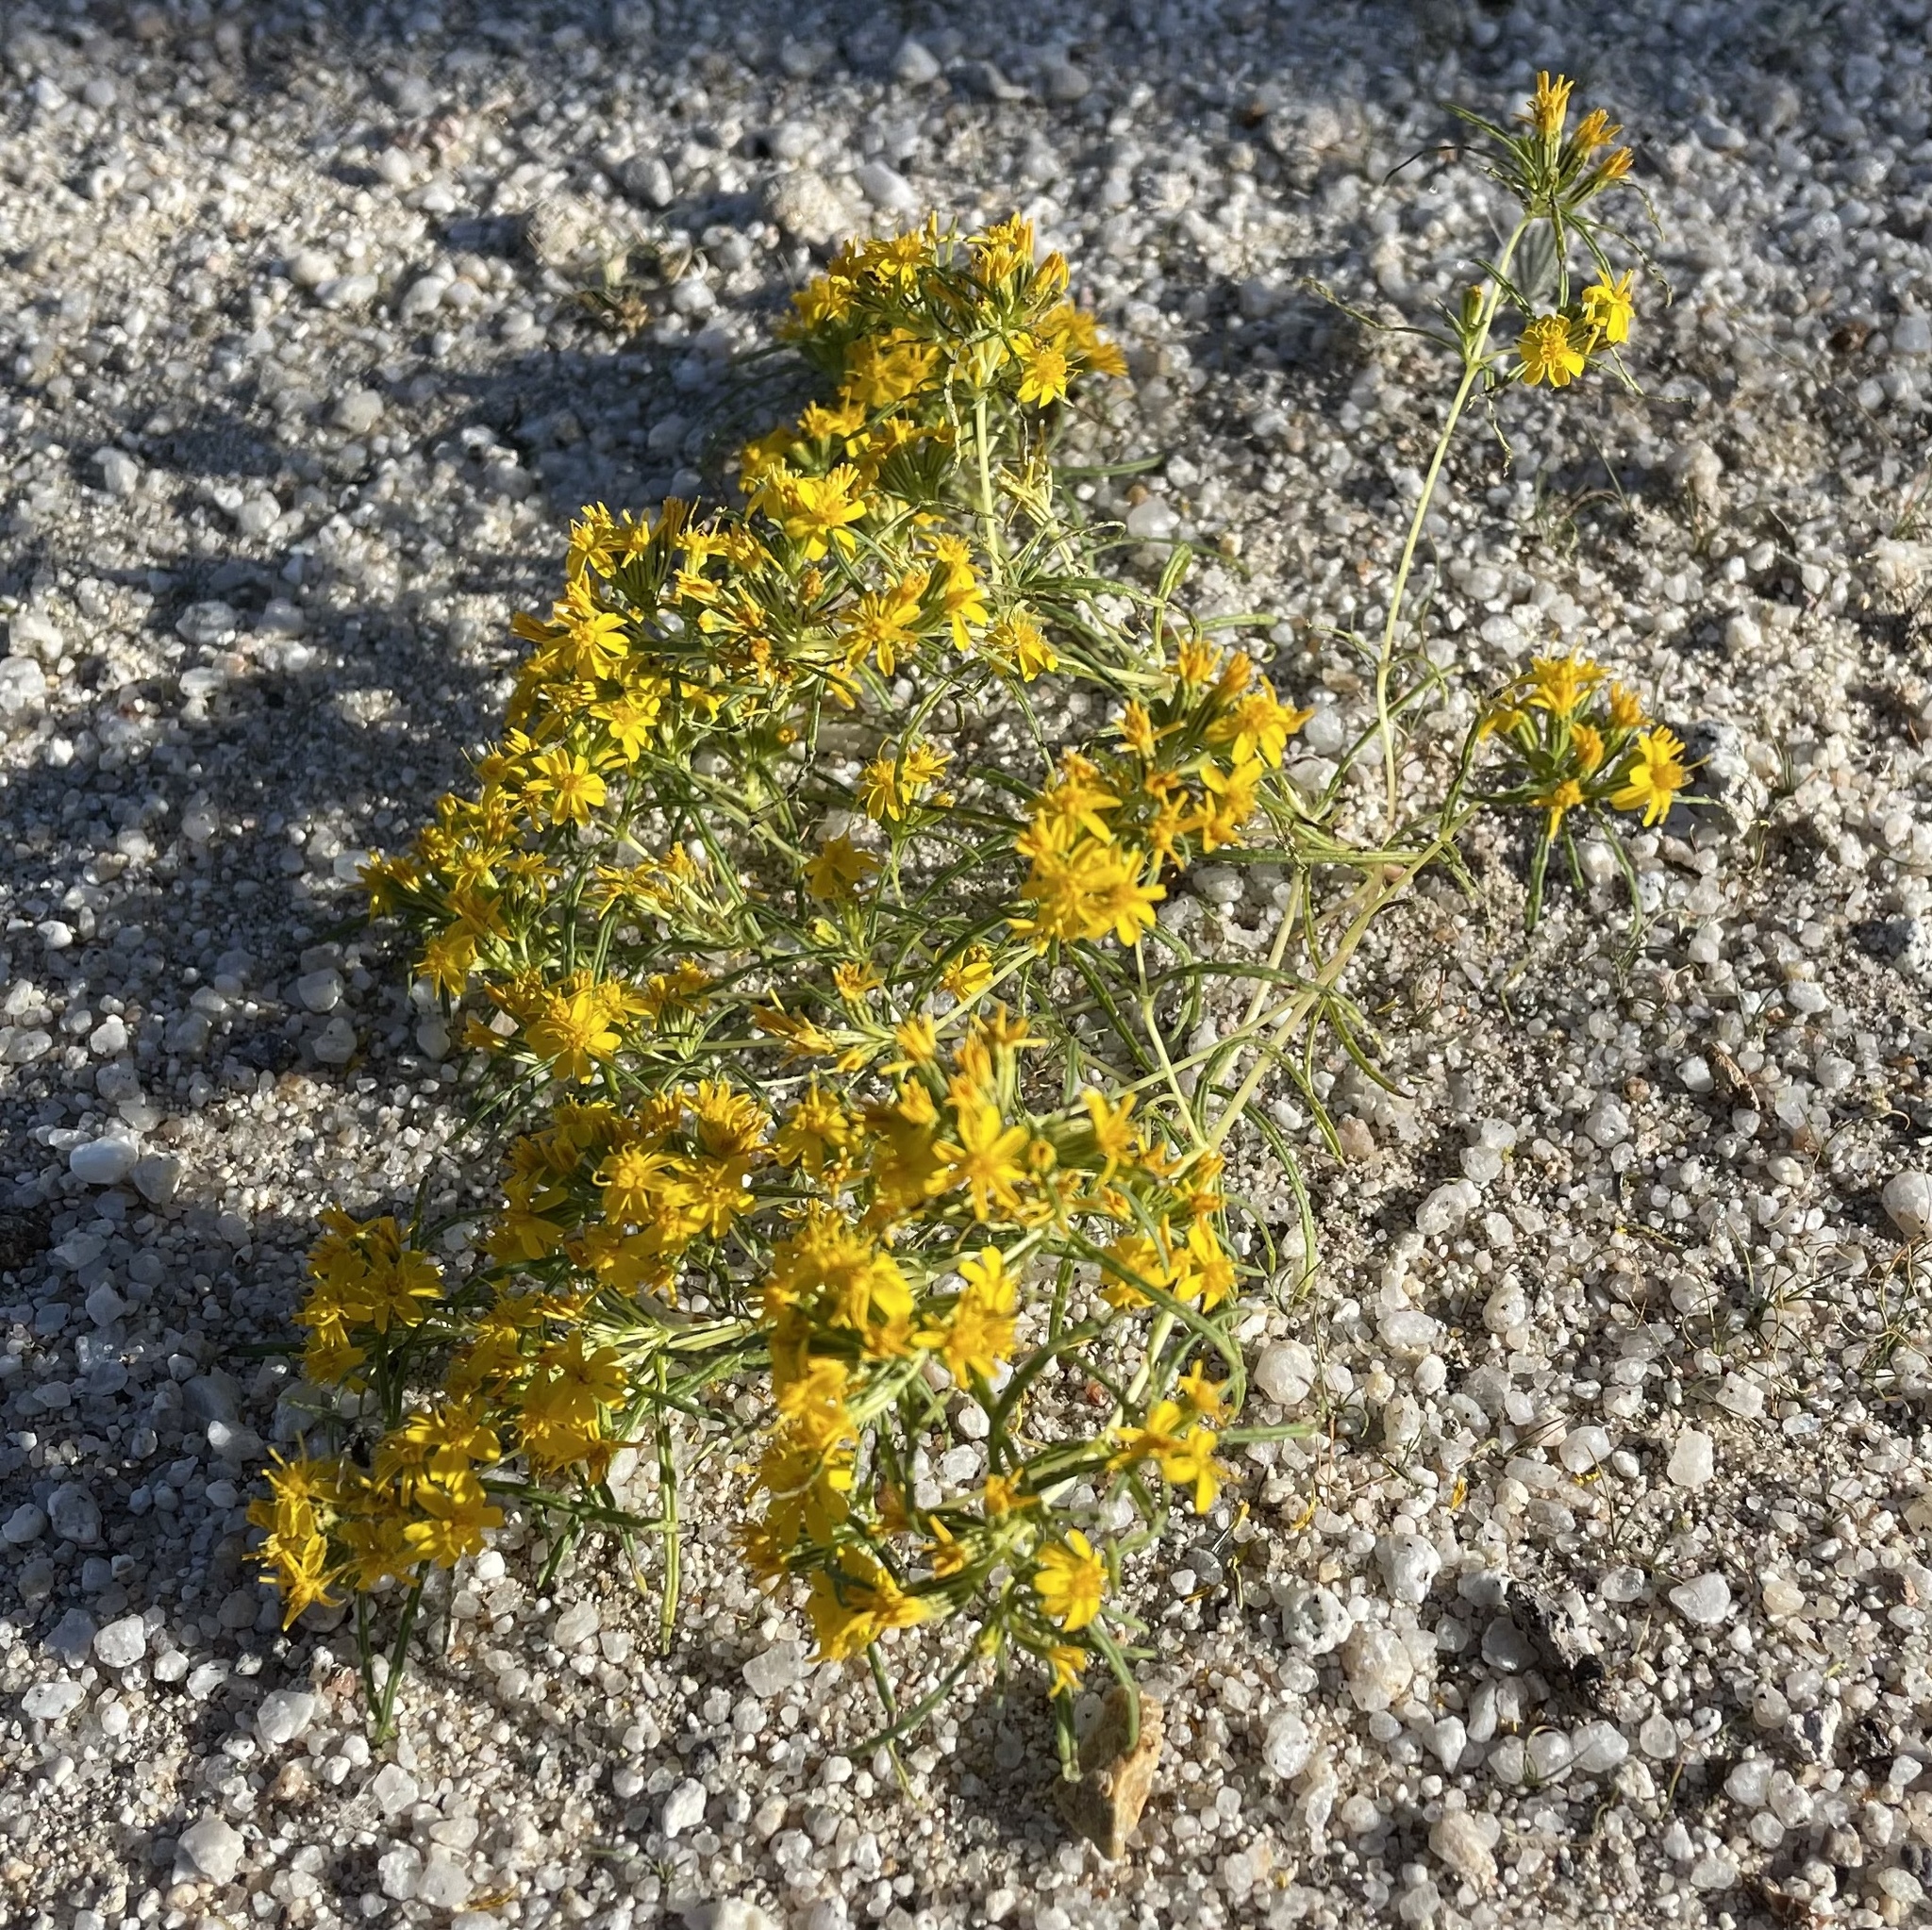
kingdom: Plantae
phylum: Tracheophyta
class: Magnoliopsida
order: Asterales
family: Asteraceae
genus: Pectis
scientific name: Pectis papposa
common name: Many-bristle chinchweed
